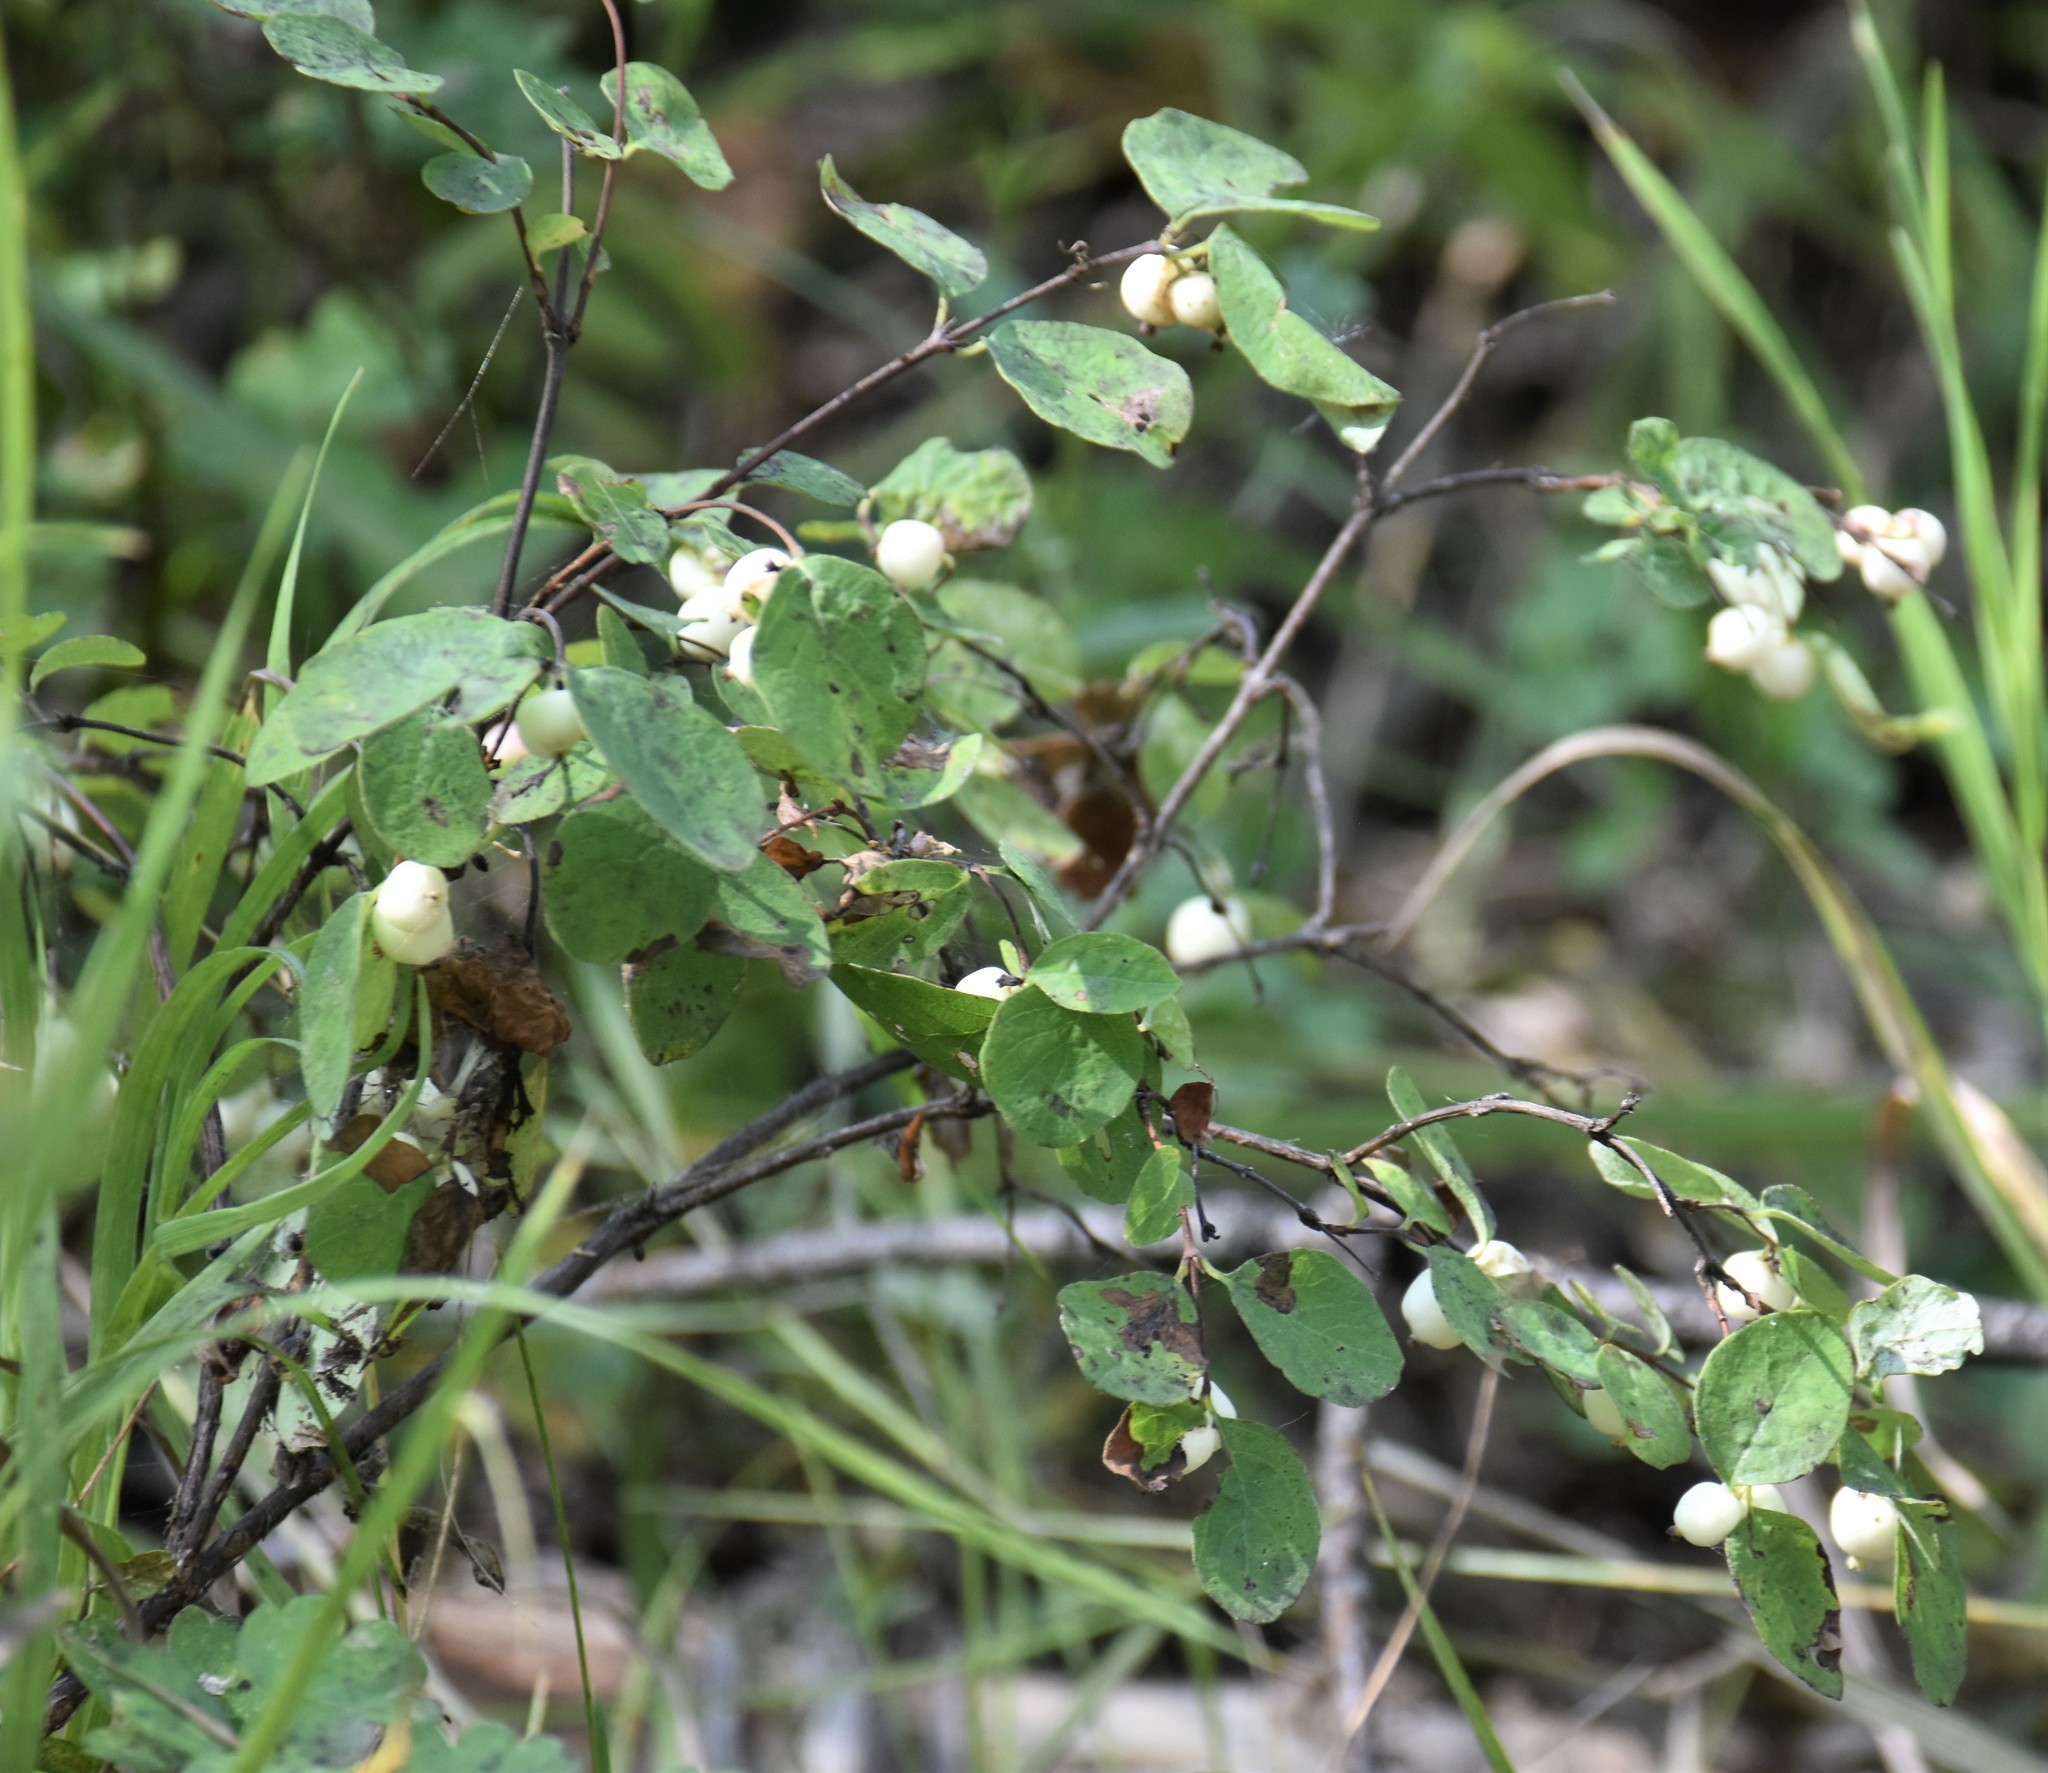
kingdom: Plantae
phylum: Tracheophyta
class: Magnoliopsida
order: Dipsacales
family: Caprifoliaceae
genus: Symphoricarpos
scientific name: Symphoricarpos albus
